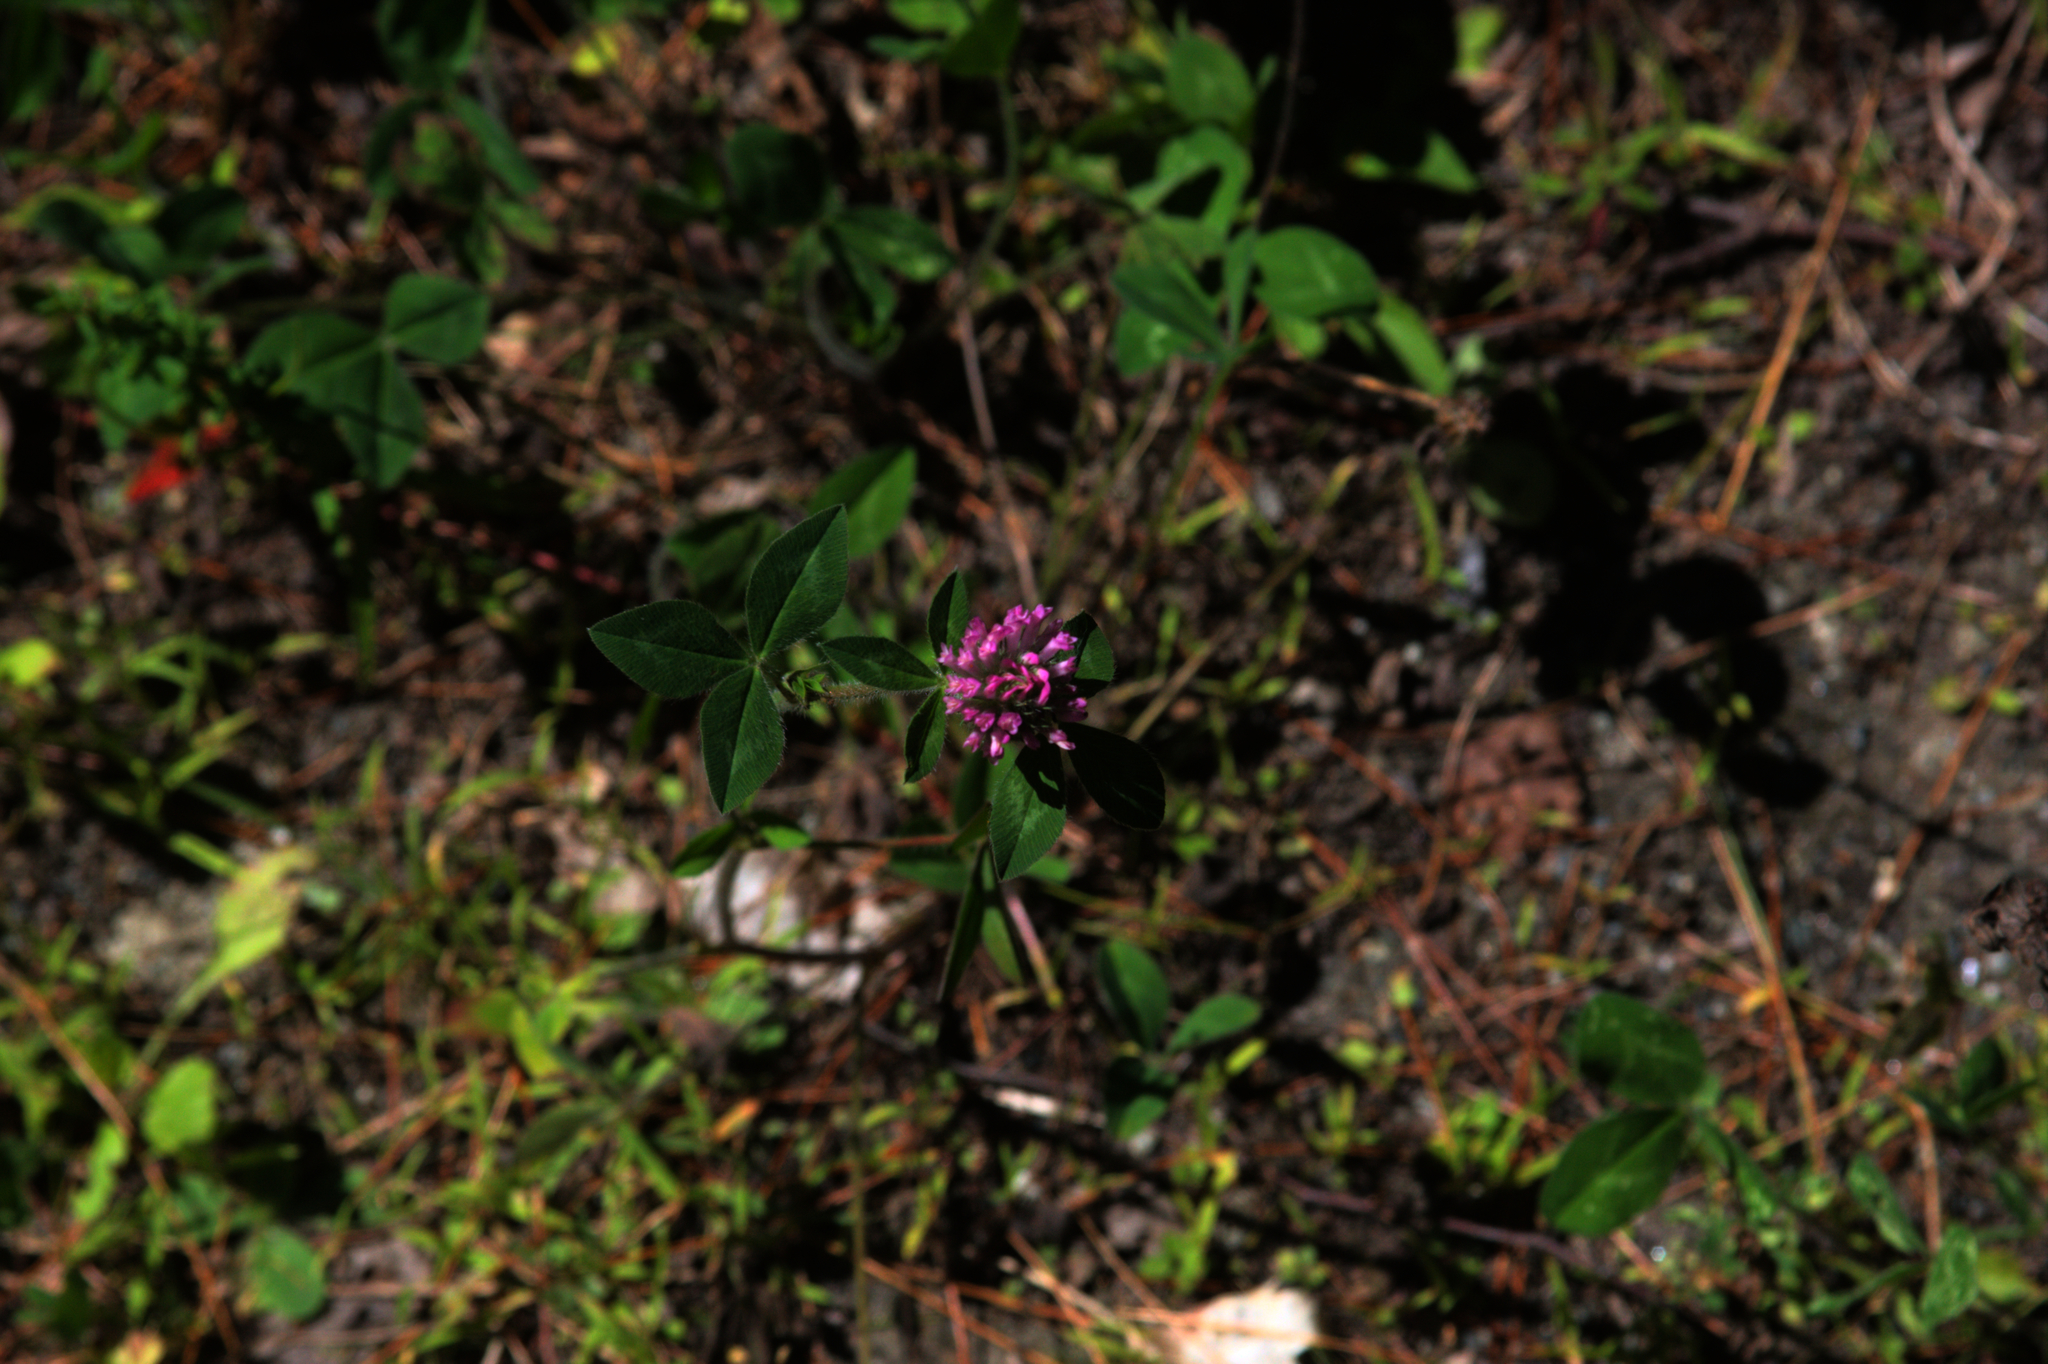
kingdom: Plantae
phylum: Tracheophyta
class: Magnoliopsida
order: Fabales
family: Fabaceae
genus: Trifolium
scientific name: Trifolium pratense
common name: Red clover
